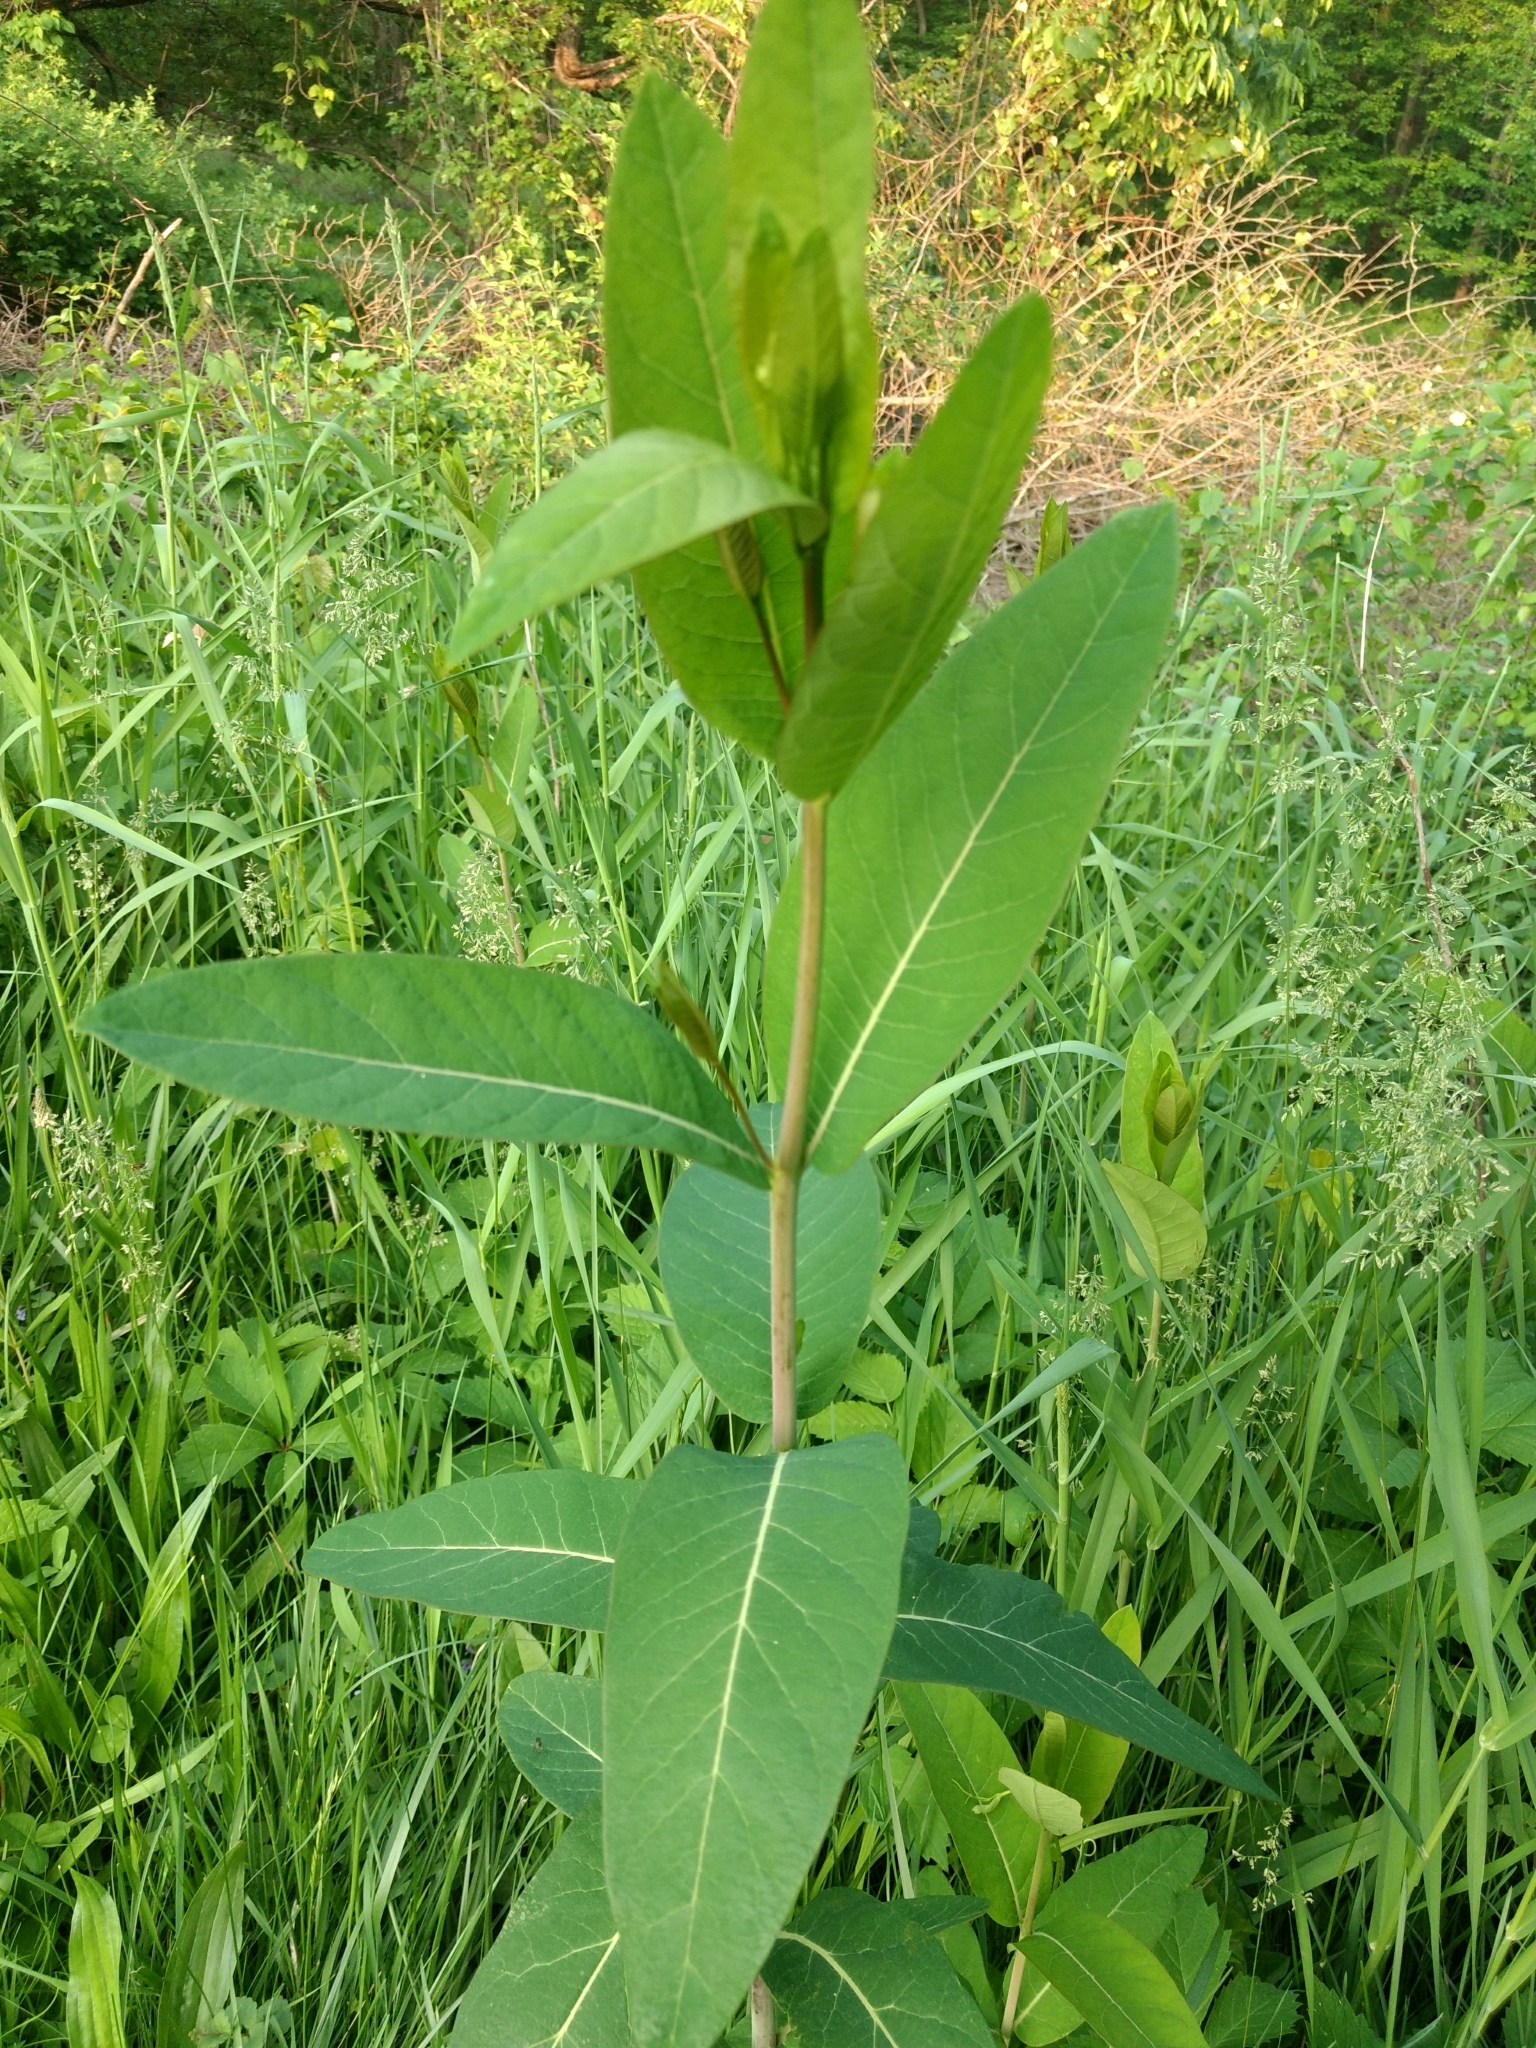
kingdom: Plantae
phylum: Tracheophyta
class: Magnoliopsida
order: Gentianales
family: Apocynaceae
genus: Apocynum
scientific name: Apocynum cannabinum
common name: Hemp dogbane
